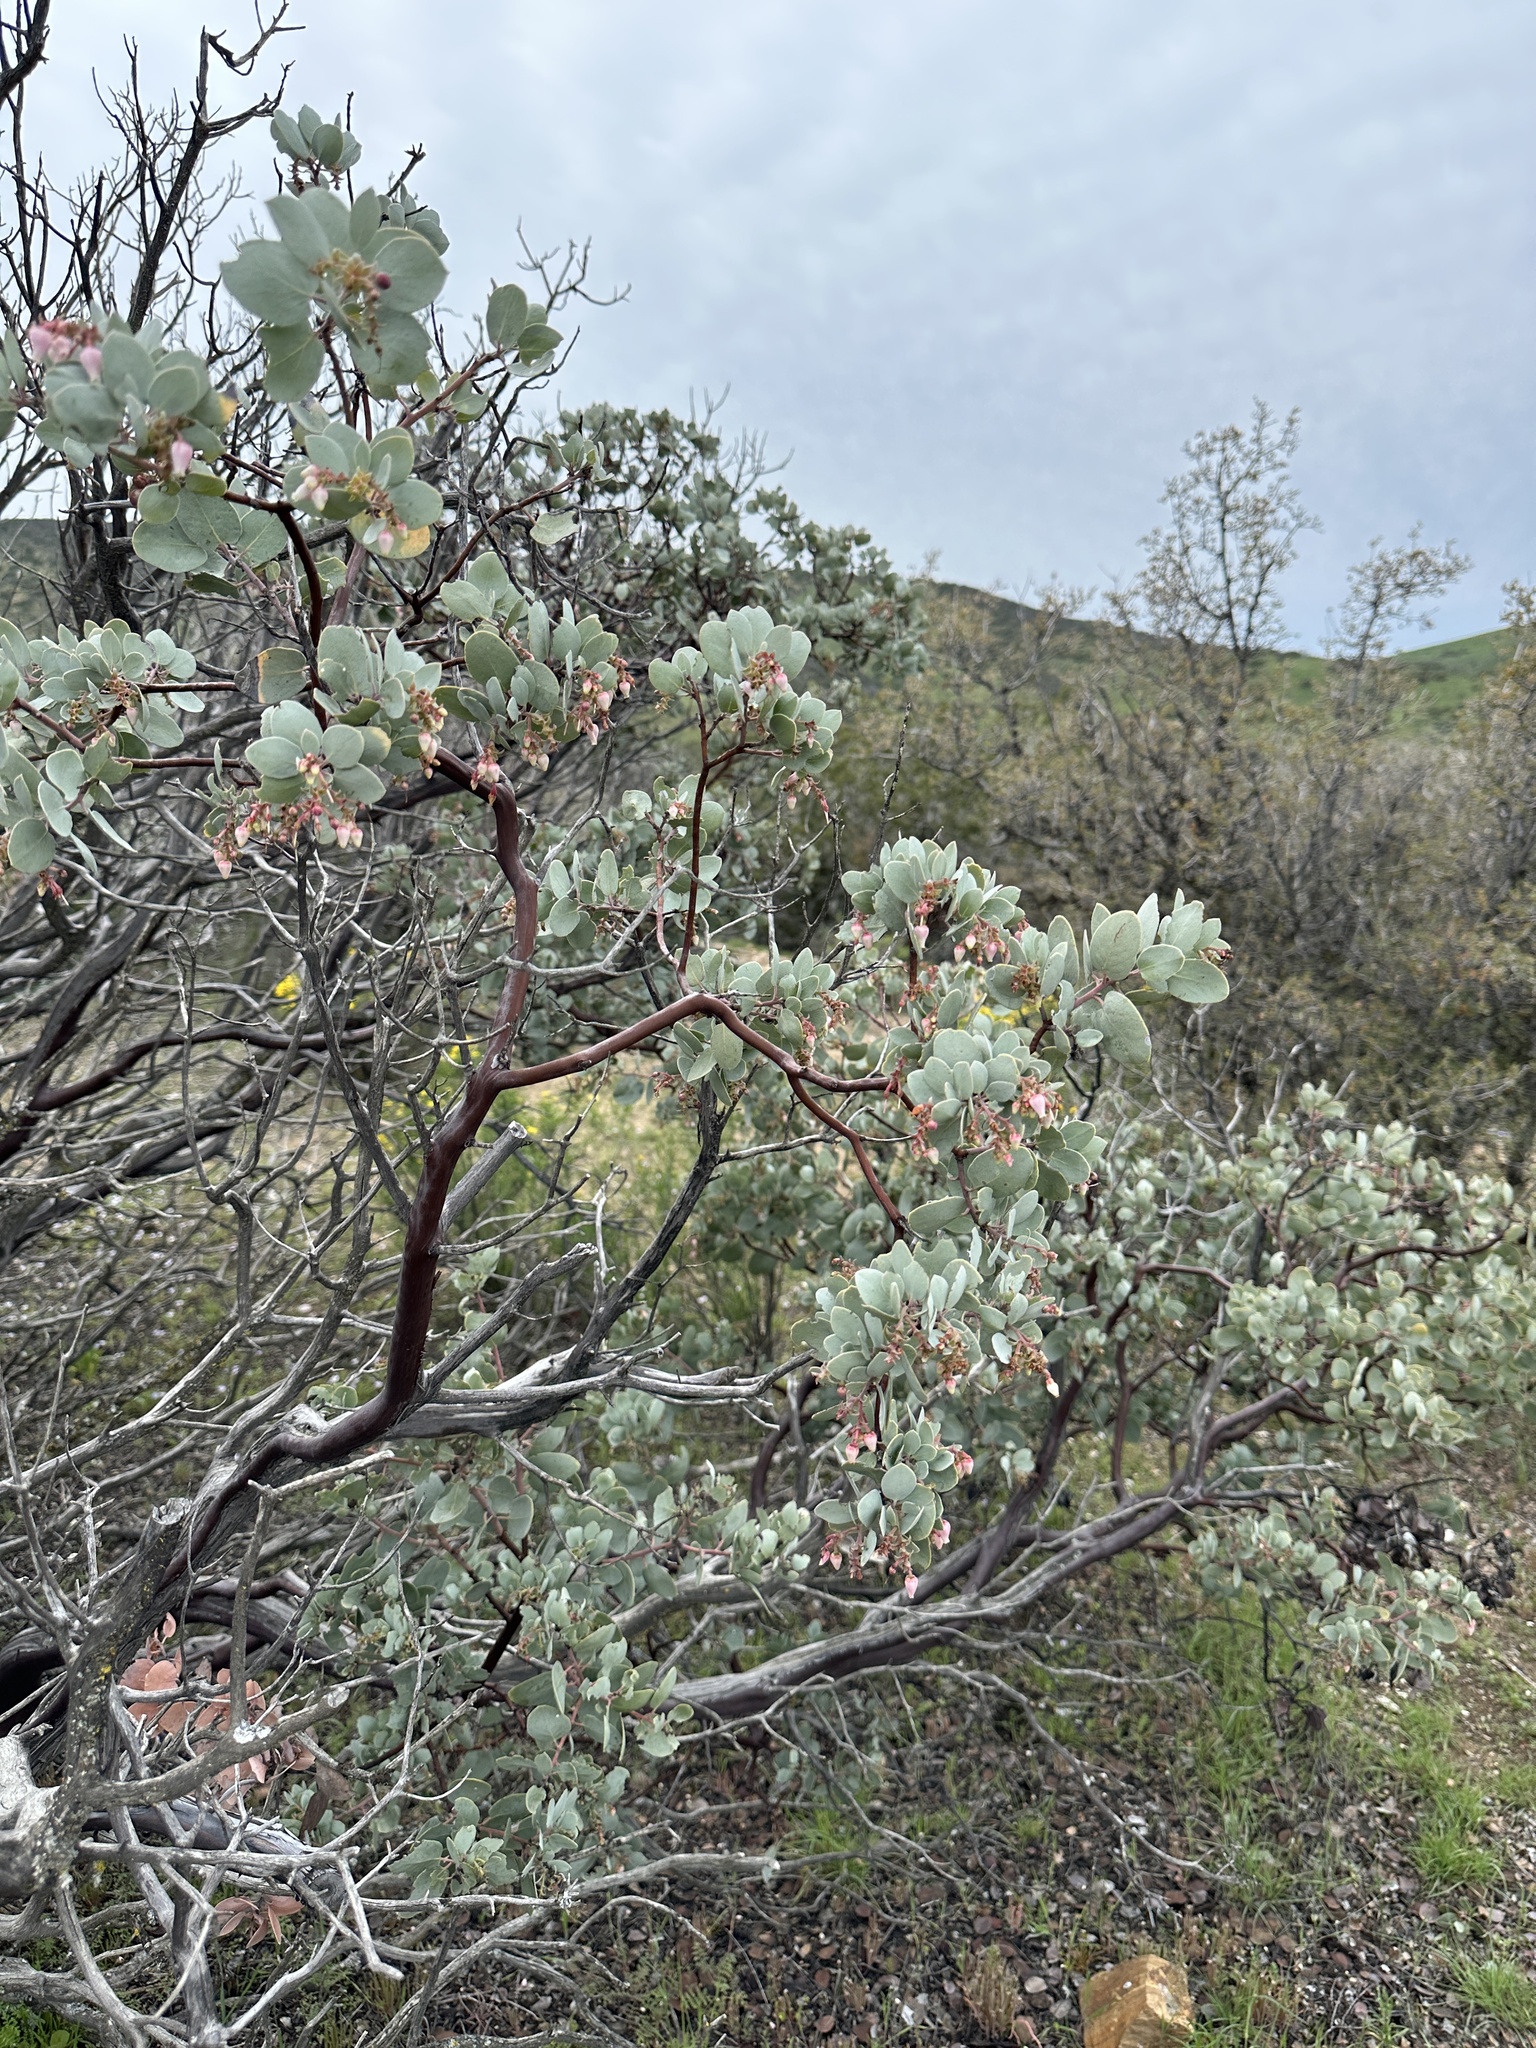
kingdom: Plantae
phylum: Tracheophyta
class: Magnoliopsida
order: Ericales
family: Ericaceae
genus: Arctostaphylos
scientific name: Arctostaphylos glauca
